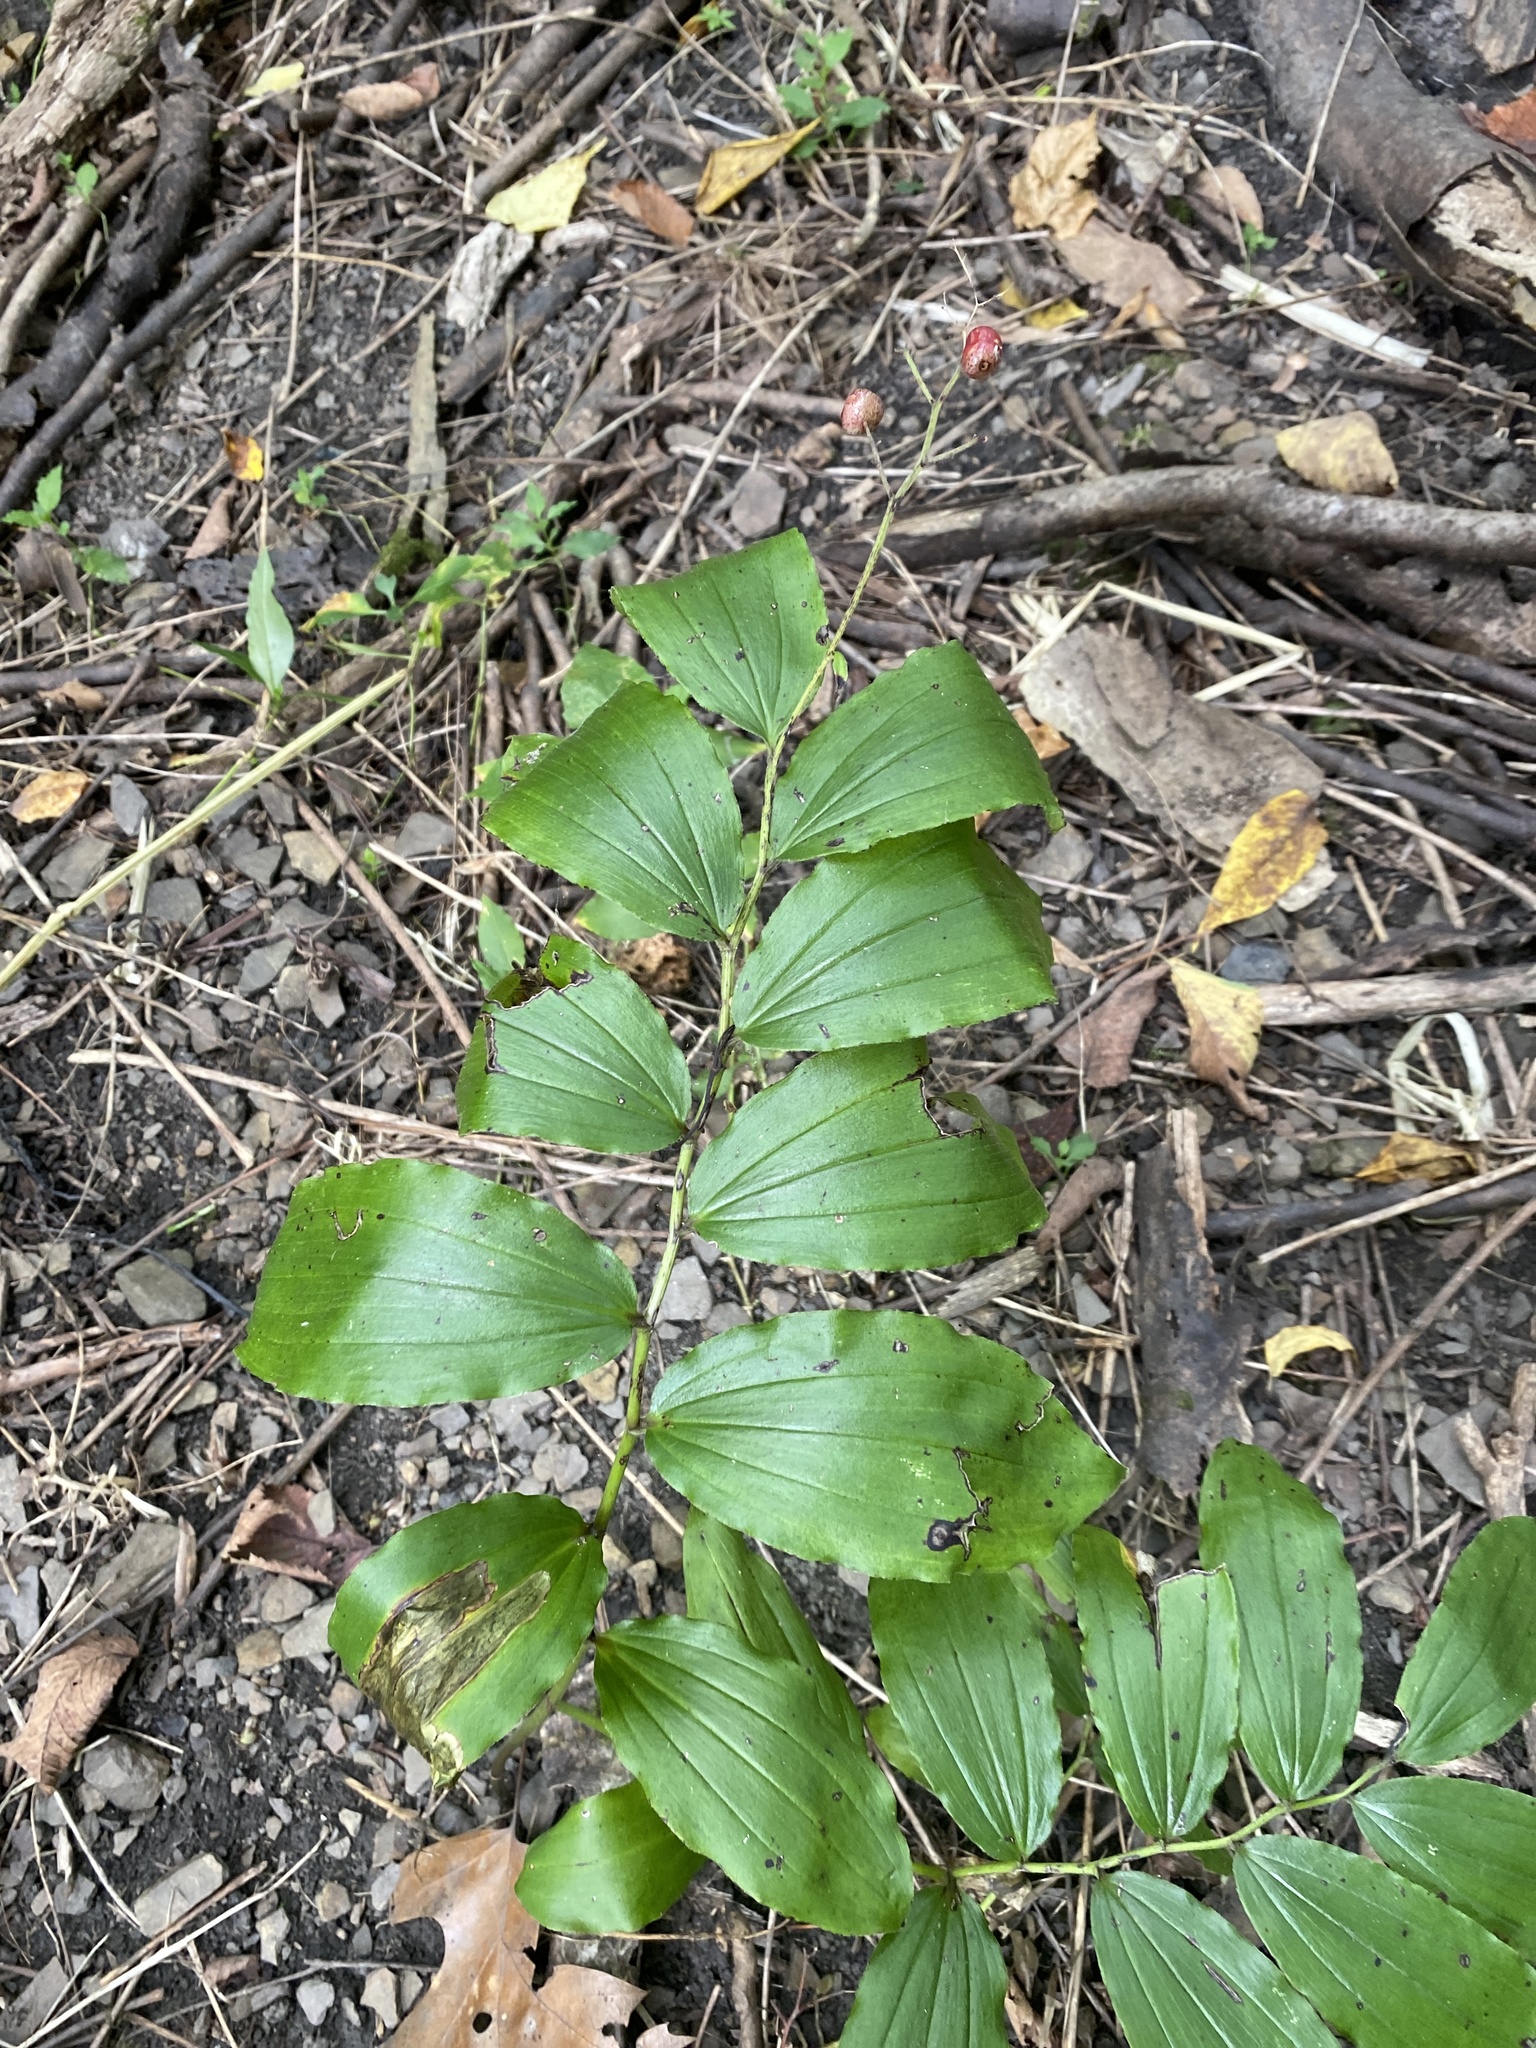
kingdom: Plantae
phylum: Tracheophyta
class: Liliopsida
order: Asparagales
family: Asparagaceae
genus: Maianthemum
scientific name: Maianthemum racemosum
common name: False spikenard
